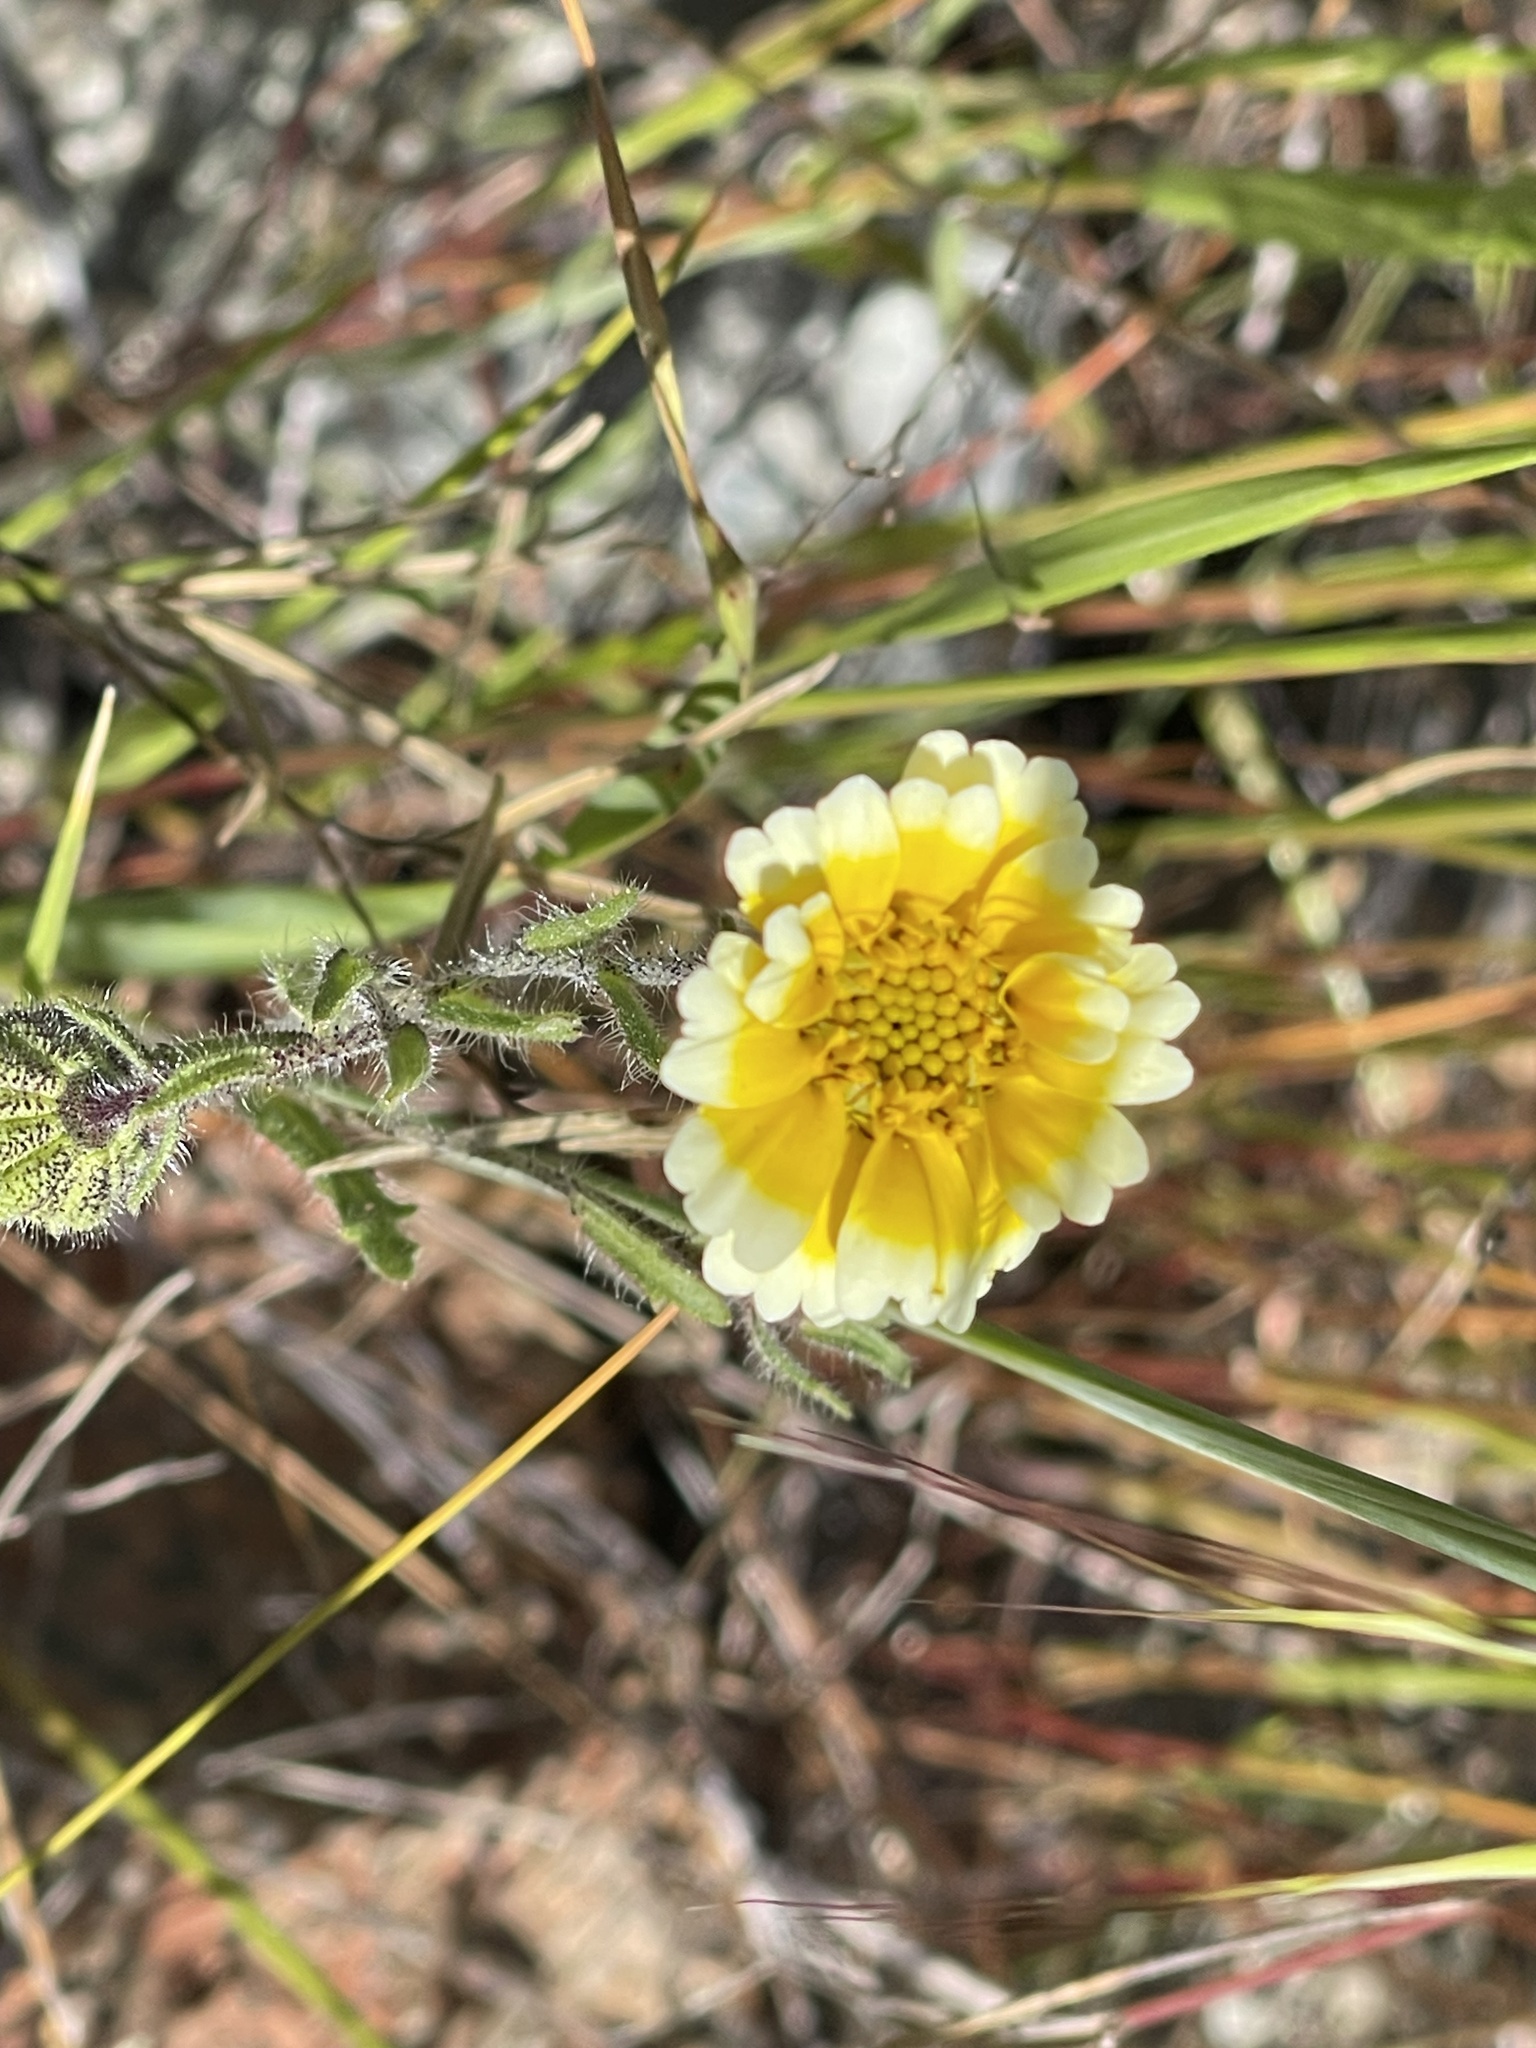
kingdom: Plantae
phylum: Tracheophyta
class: Magnoliopsida
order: Asterales
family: Asteraceae
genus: Layia
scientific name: Layia gaillardioides
